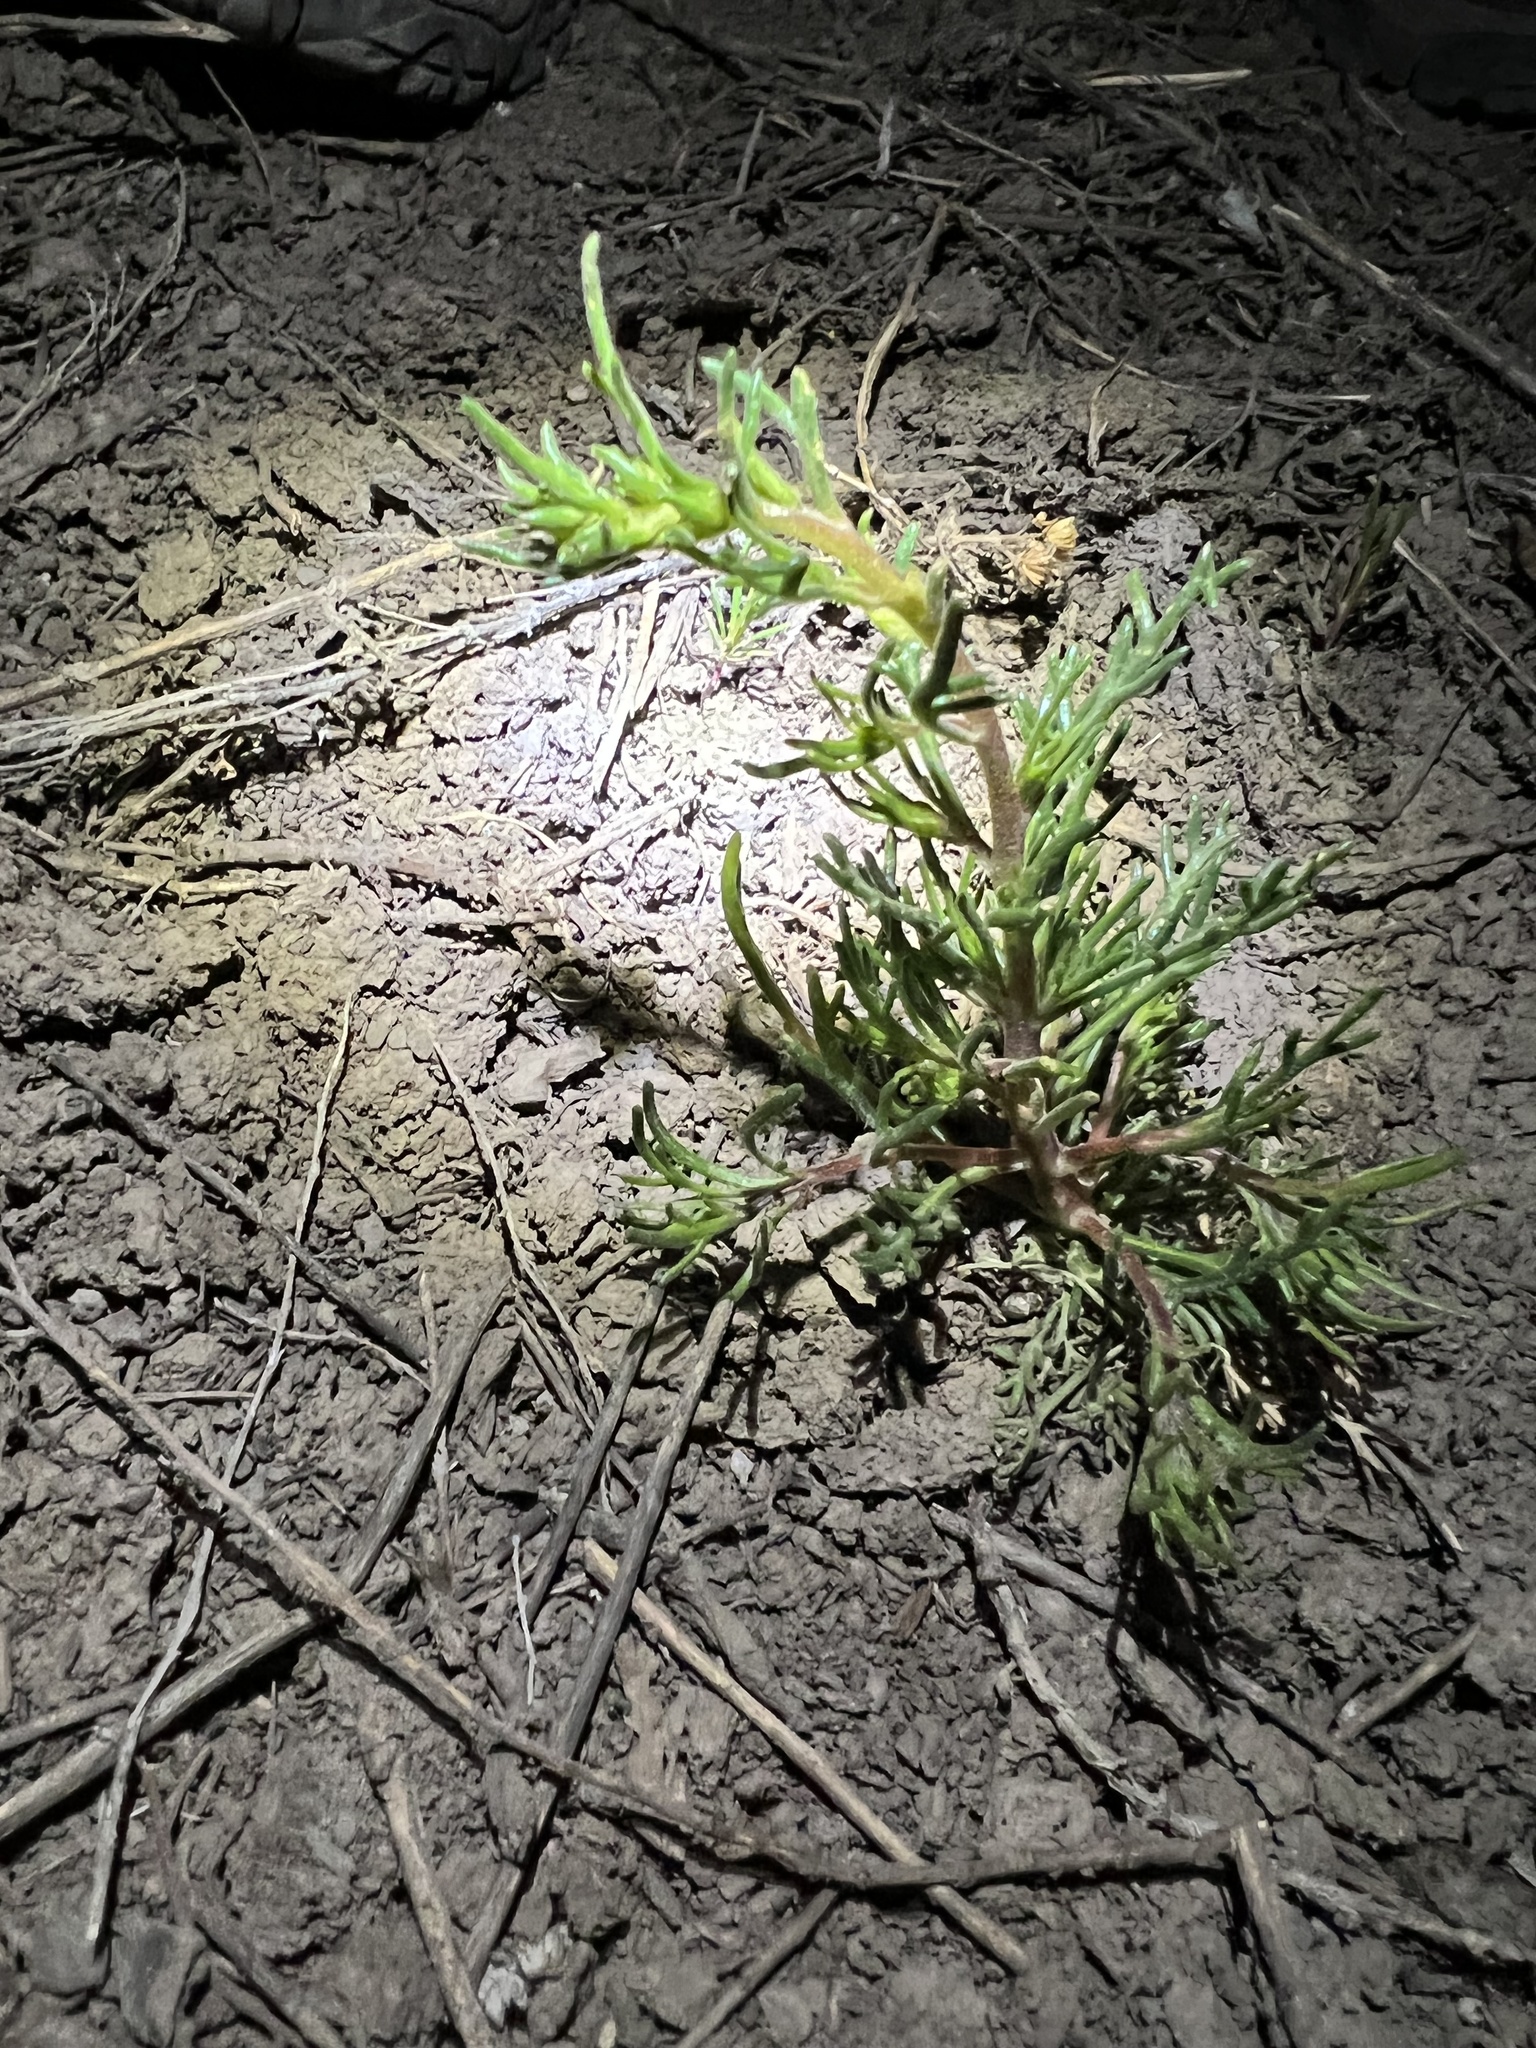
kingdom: Plantae
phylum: Tracheophyta
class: Magnoliopsida
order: Ericales
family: Polemoniaceae
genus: Ipomopsis
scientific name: Ipomopsis polyantha
